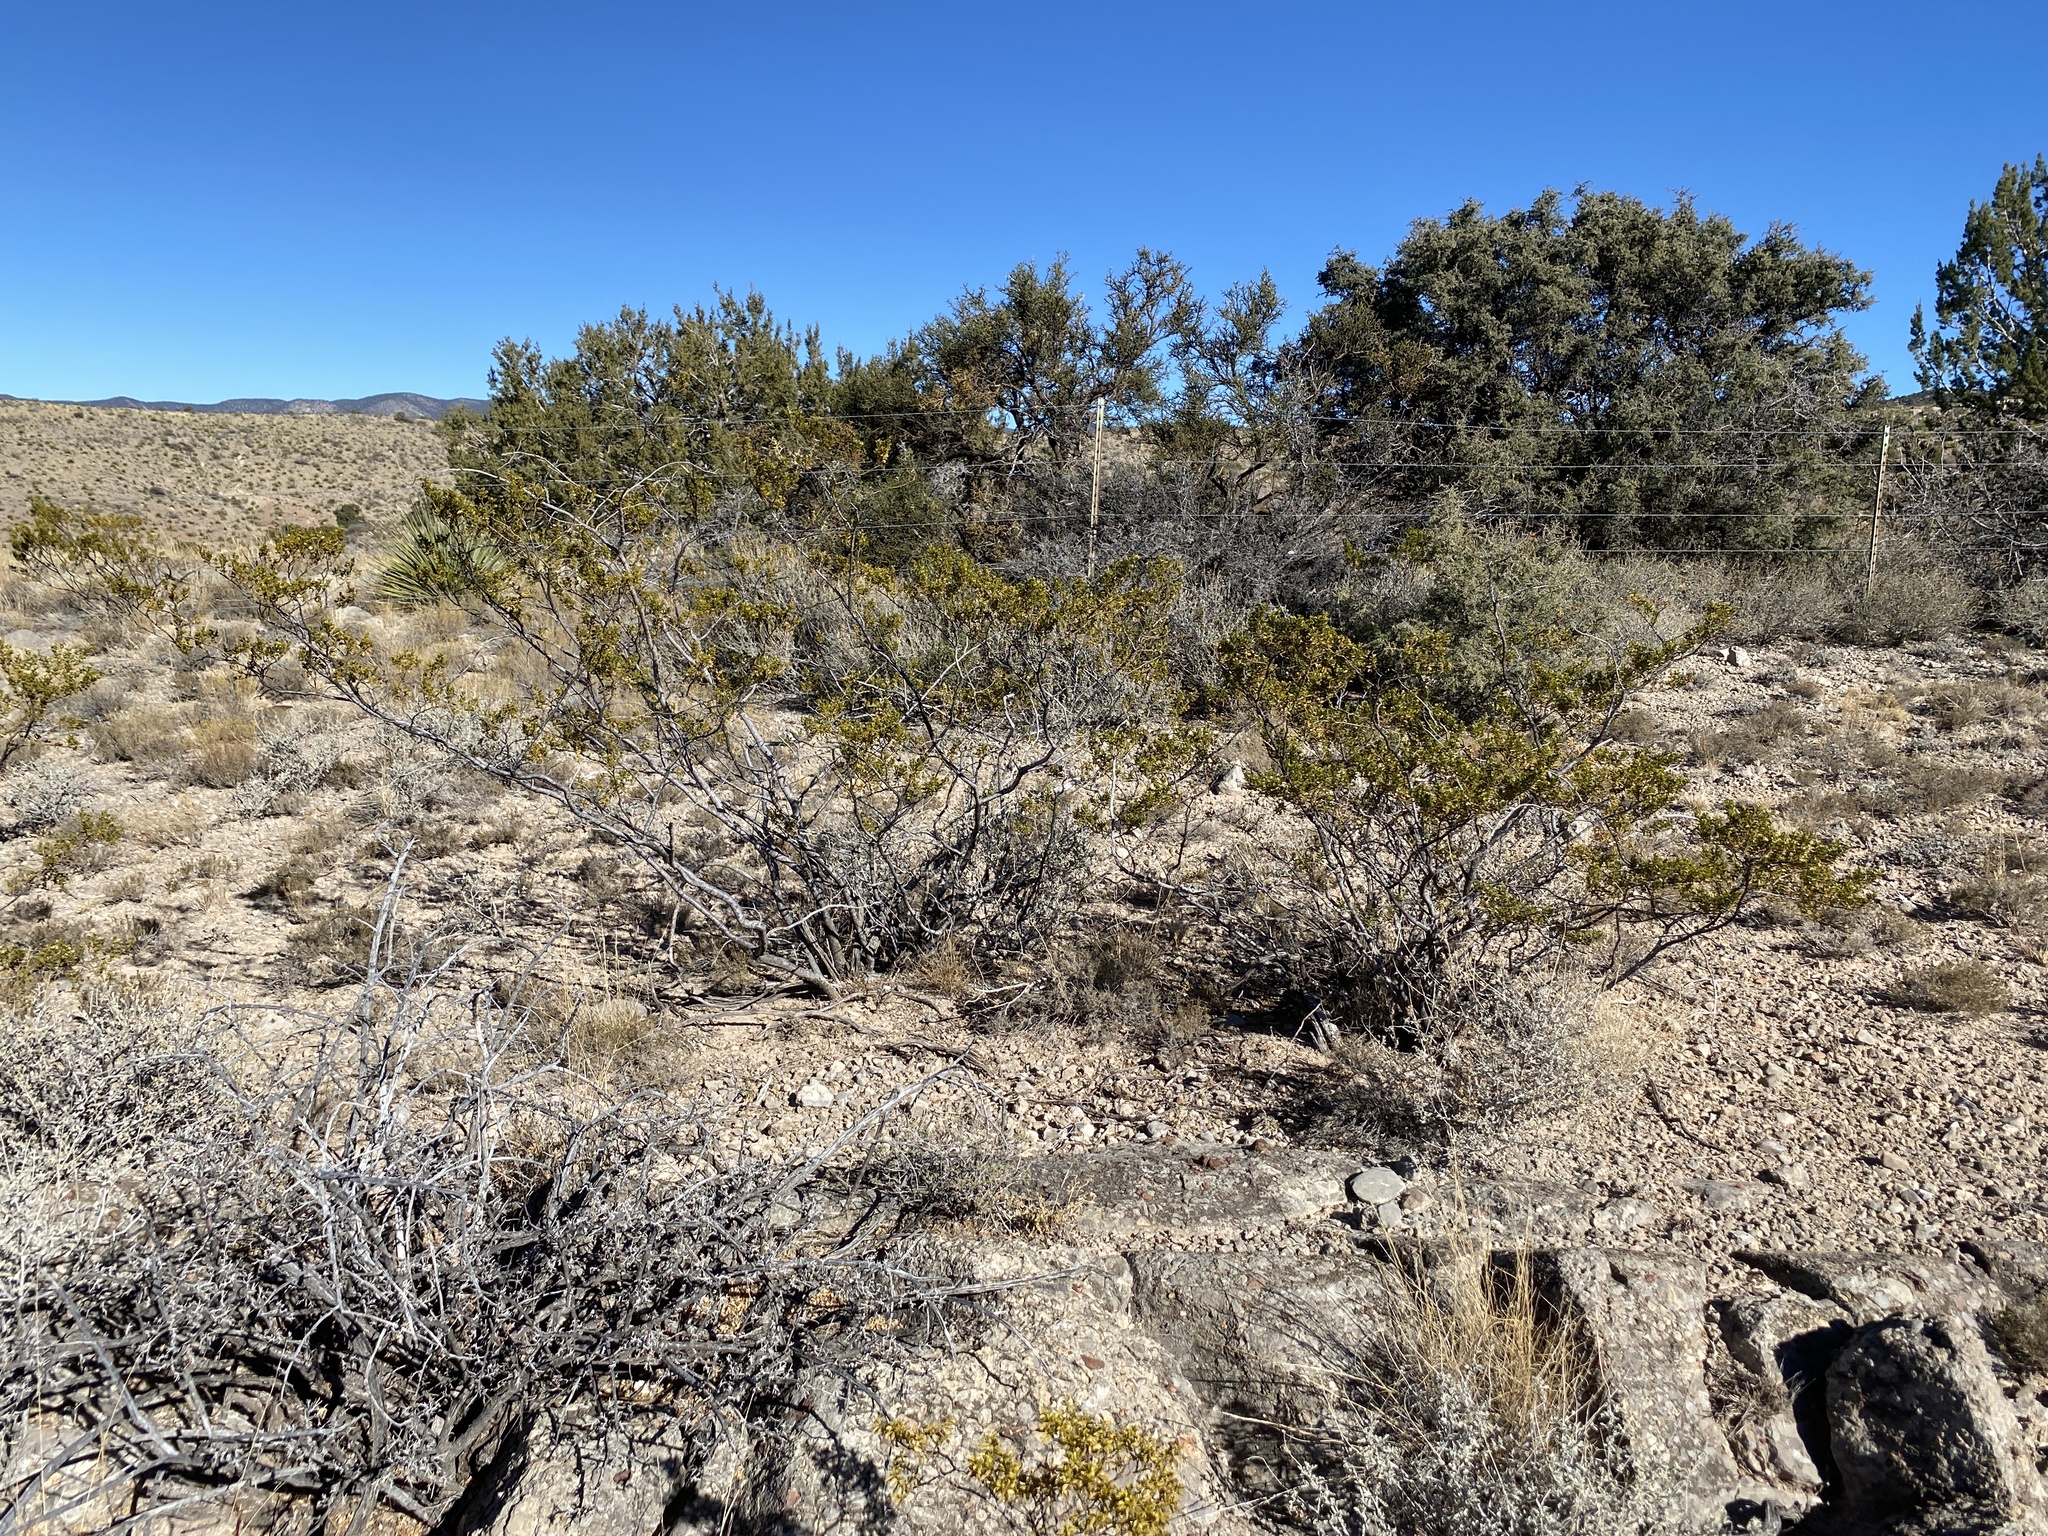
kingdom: Plantae
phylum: Tracheophyta
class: Magnoliopsida
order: Zygophyllales
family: Zygophyllaceae
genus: Larrea
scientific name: Larrea tridentata
